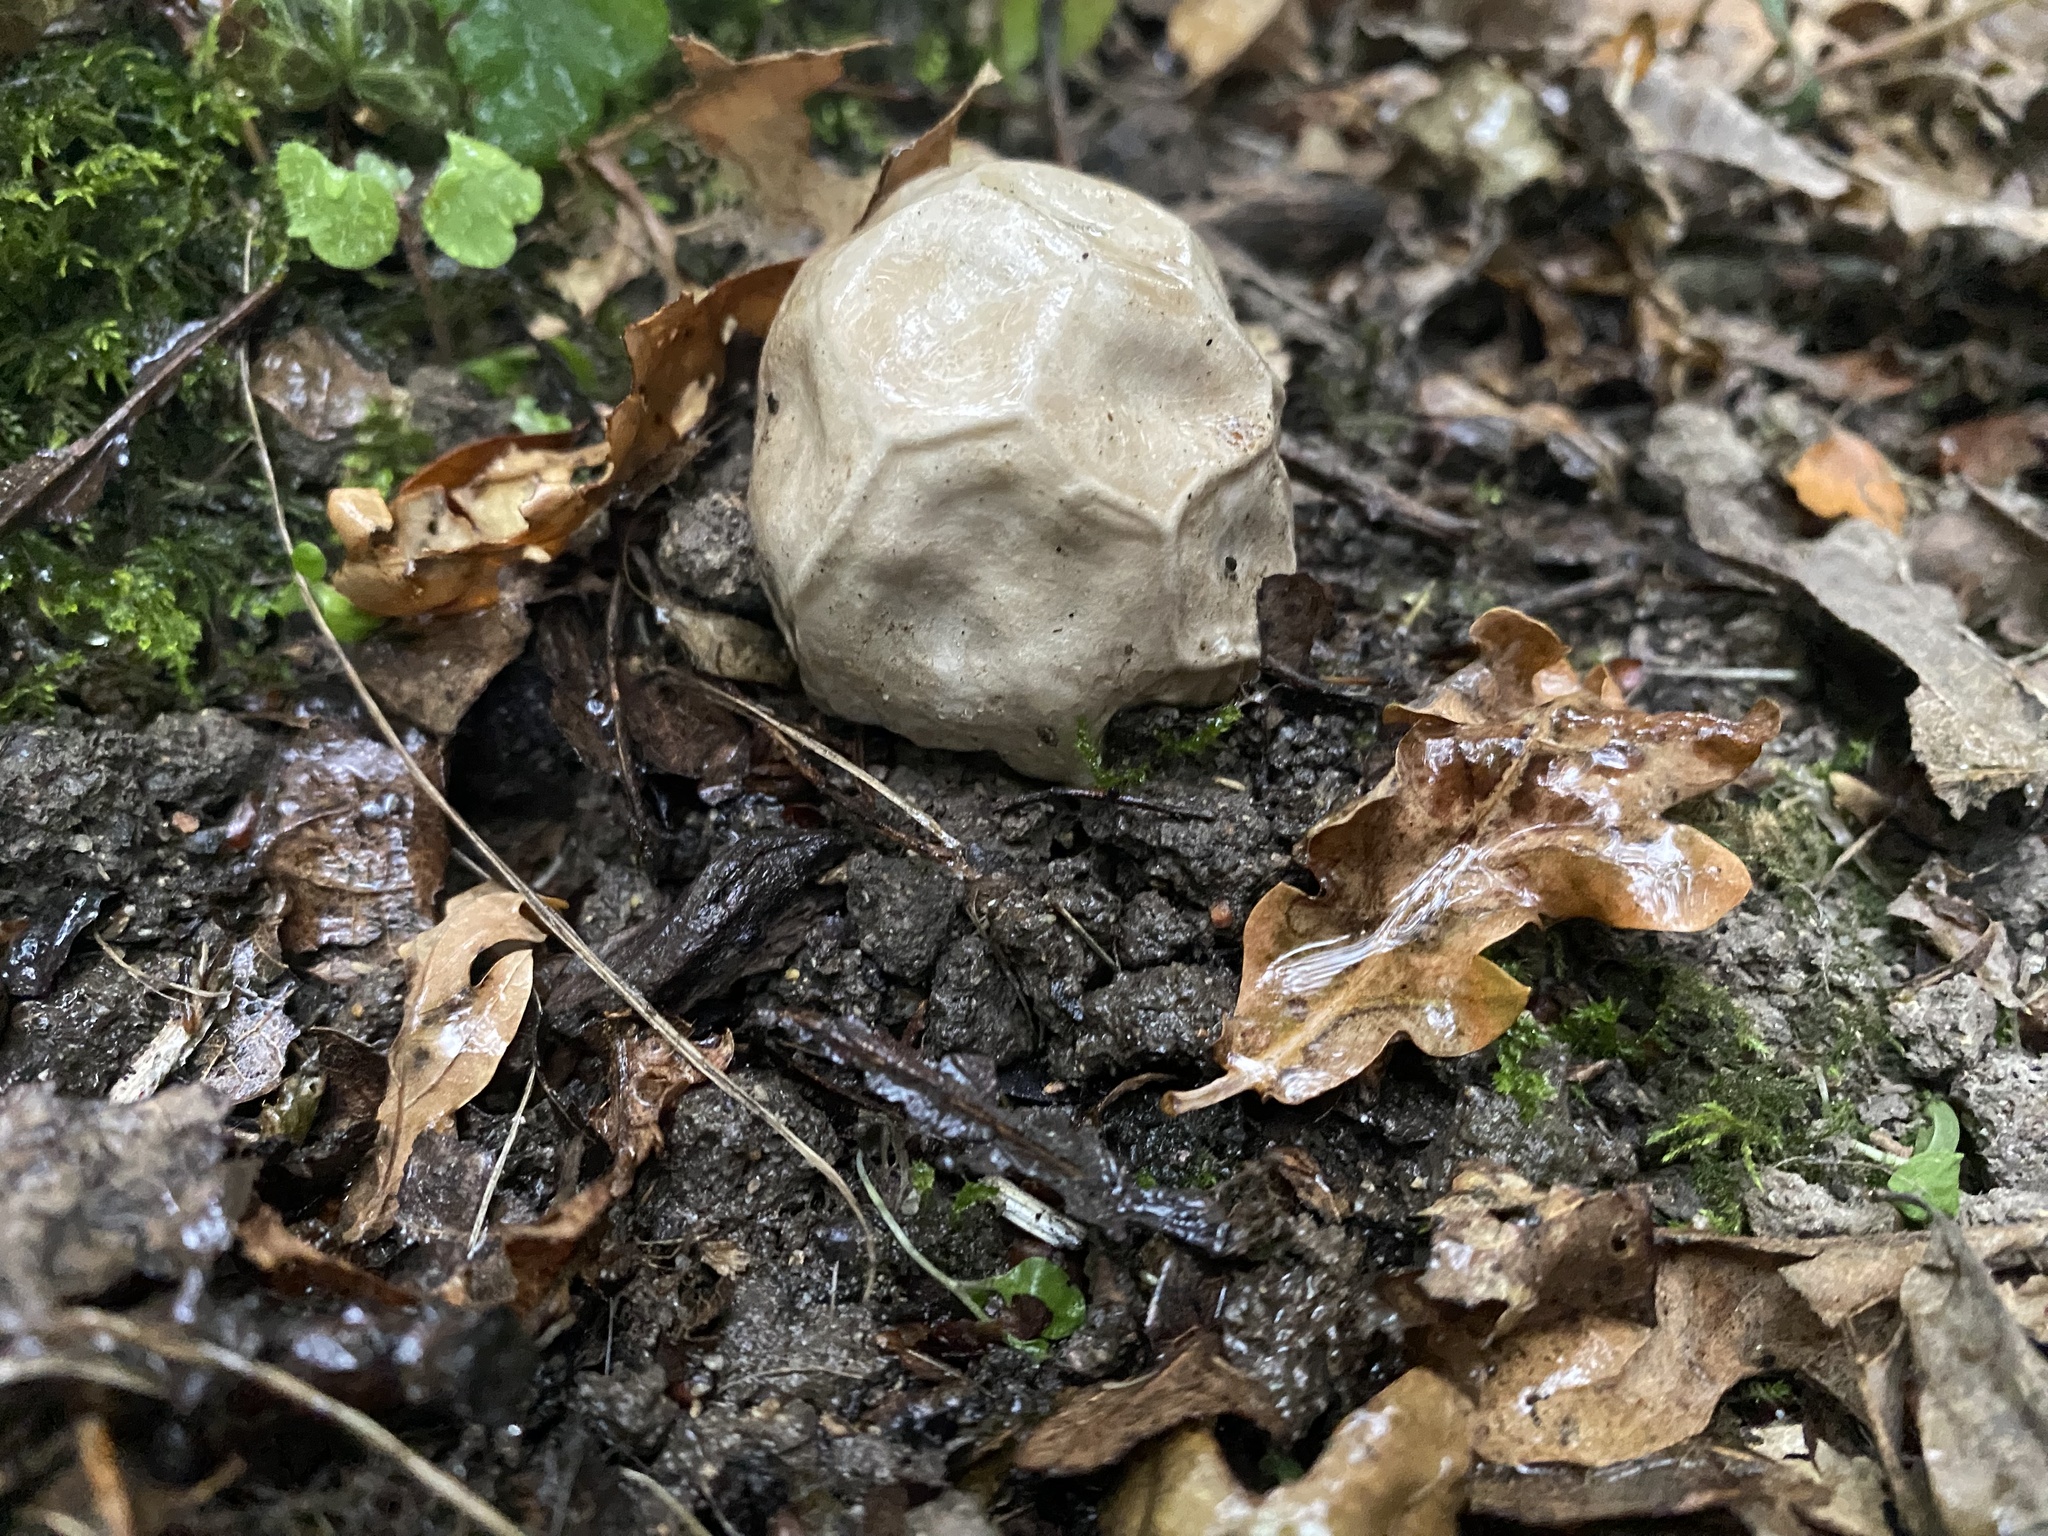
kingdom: Fungi
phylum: Basidiomycota
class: Agaricomycetes
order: Phallales
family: Phallaceae
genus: Clathrus
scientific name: Clathrus ruber
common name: Red cage
